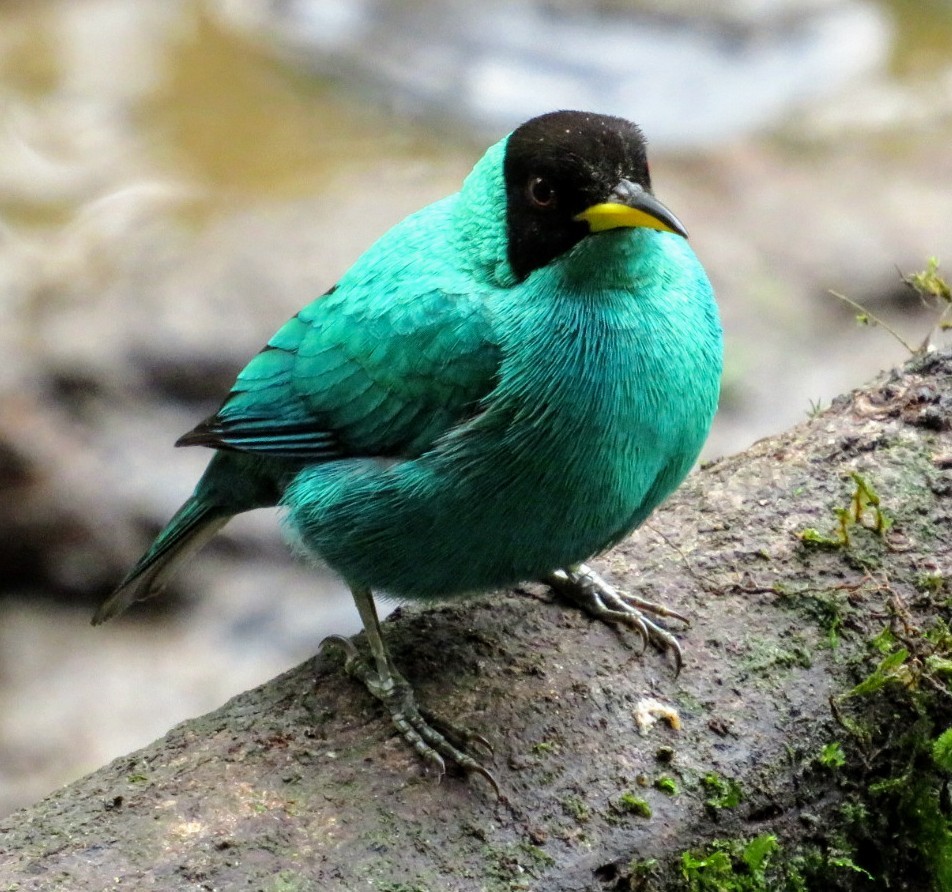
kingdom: Animalia
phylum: Chordata
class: Aves
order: Passeriformes
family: Thraupidae
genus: Chlorophanes
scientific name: Chlorophanes spiza
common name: Green honeycreeper
